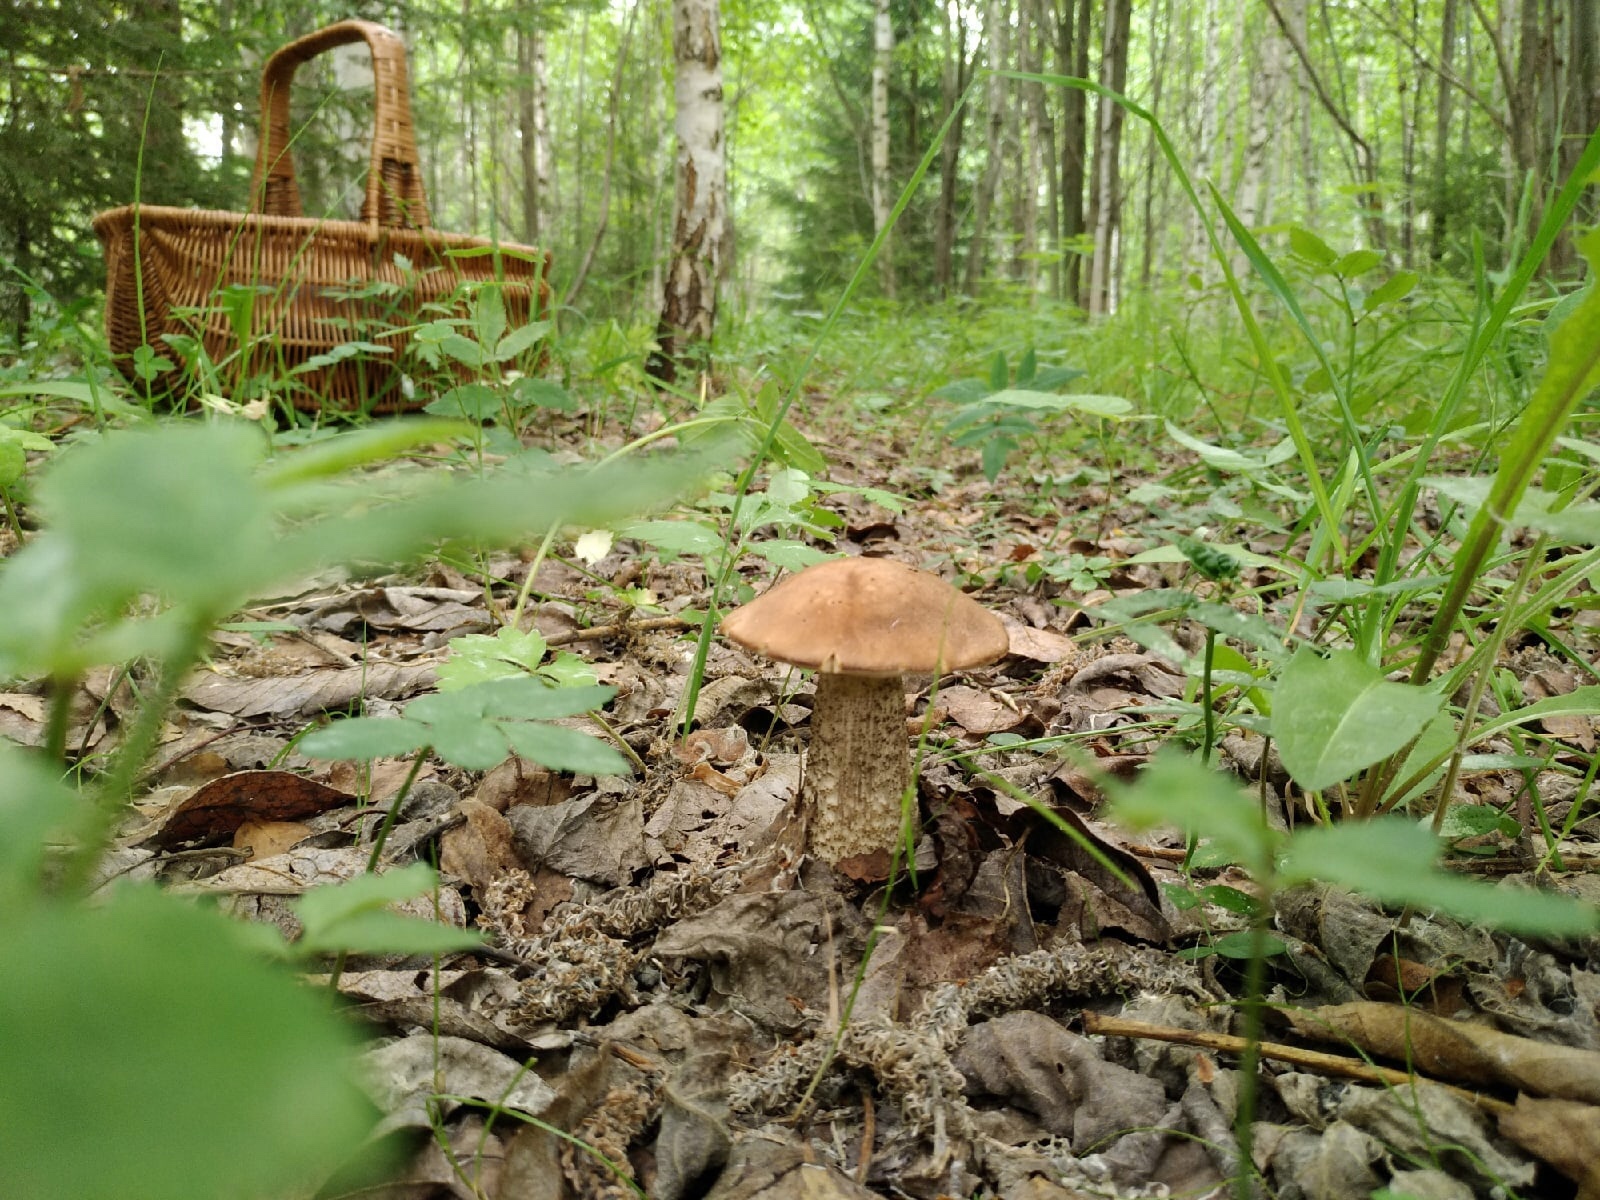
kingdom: Fungi
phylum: Basidiomycota
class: Agaricomycetes
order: Boletales
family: Boletaceae
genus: Leccinum
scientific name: Leccinum scabrum
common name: Blushing bolete
